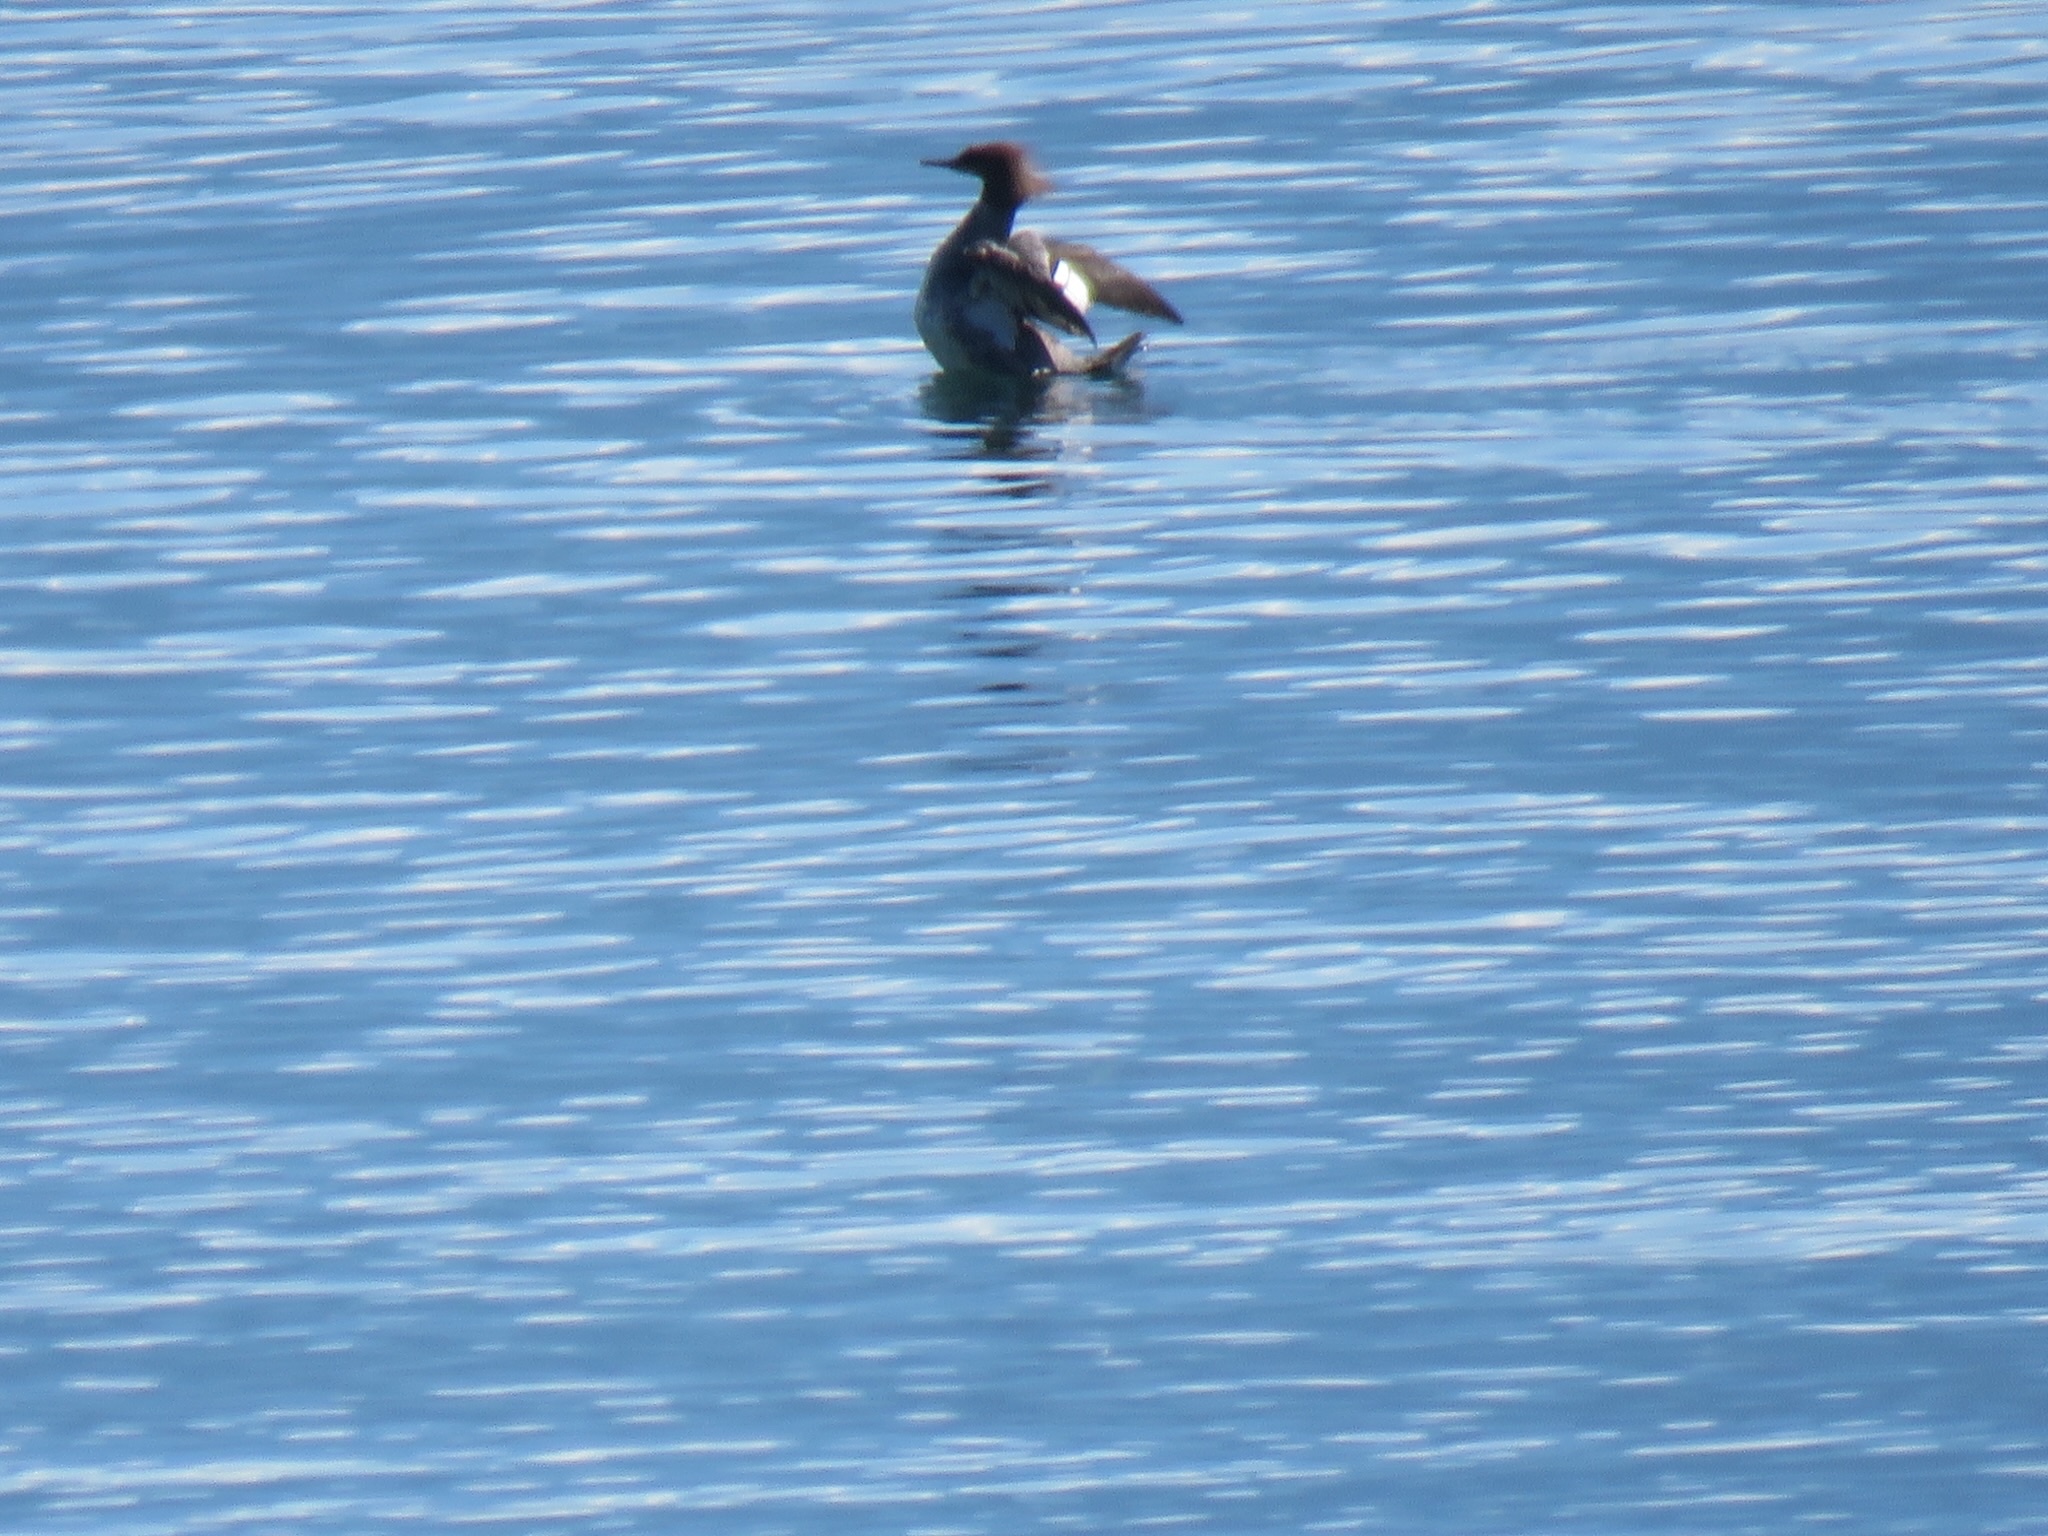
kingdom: Animalia
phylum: Chordata
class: Aves
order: Anseriformes
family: Anatidae
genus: Mergus
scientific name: Mergus merganser
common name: Common merganser
